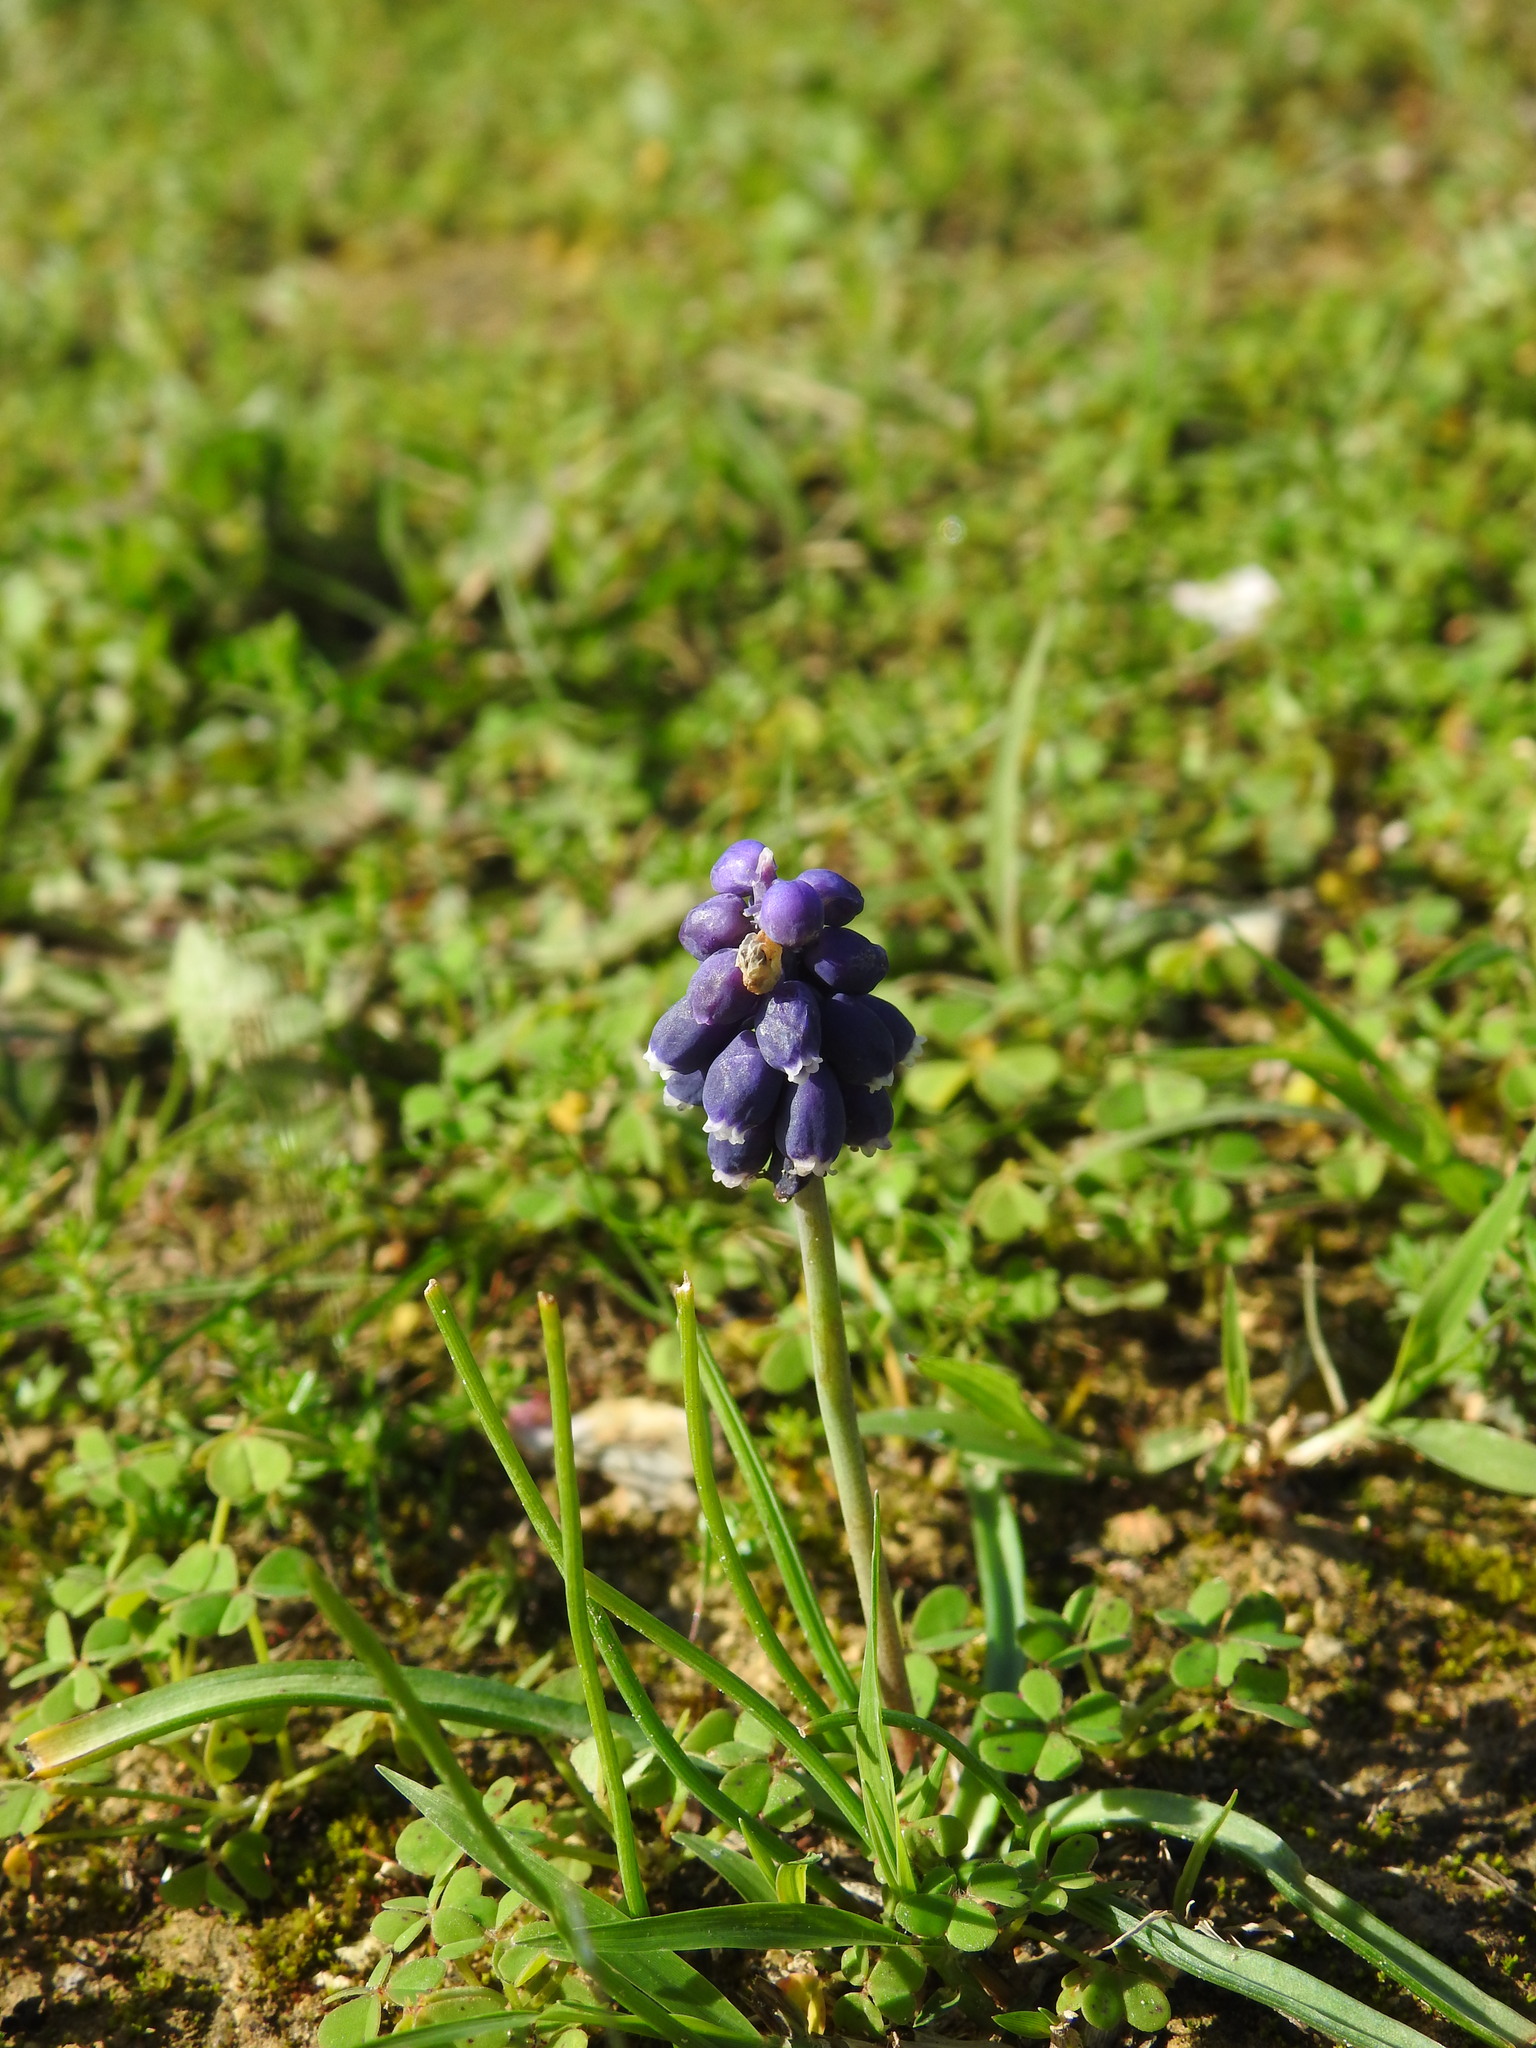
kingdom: Plantae
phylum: Tracheophyta
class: Liliopsida
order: Asparagales
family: Asparagaceae
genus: Muscari
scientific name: Muscari neglectum
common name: Grape-hyacinth
